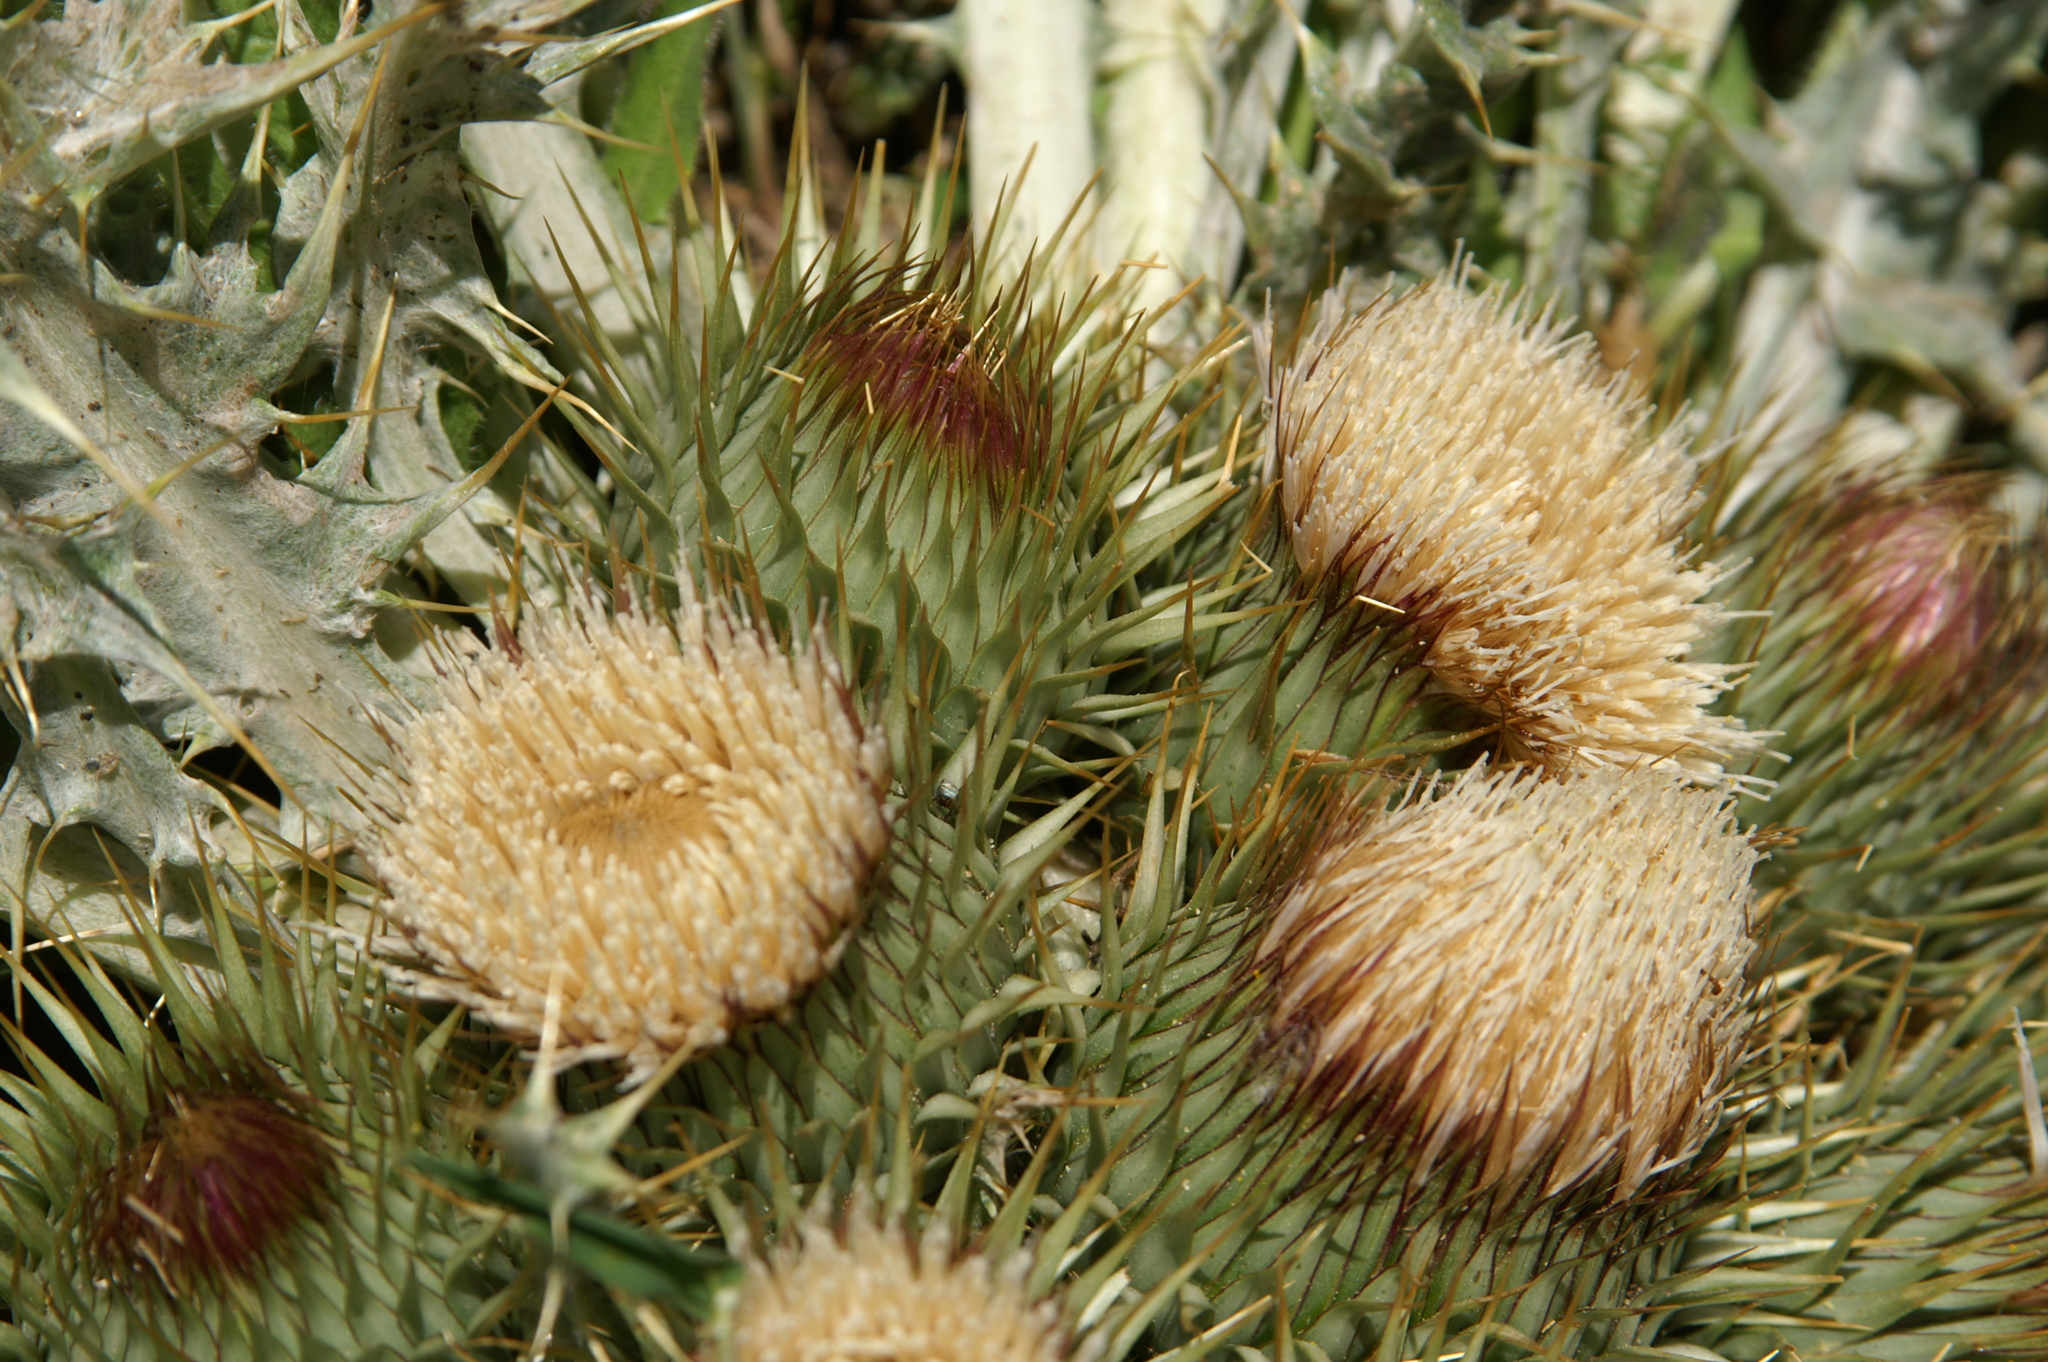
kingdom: Plantae
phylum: Tracheophyta
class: Magnoliopsida
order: Asterales
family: Asteraceae
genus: Onopordum
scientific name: Onopordum acaulon
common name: Horse thistle
